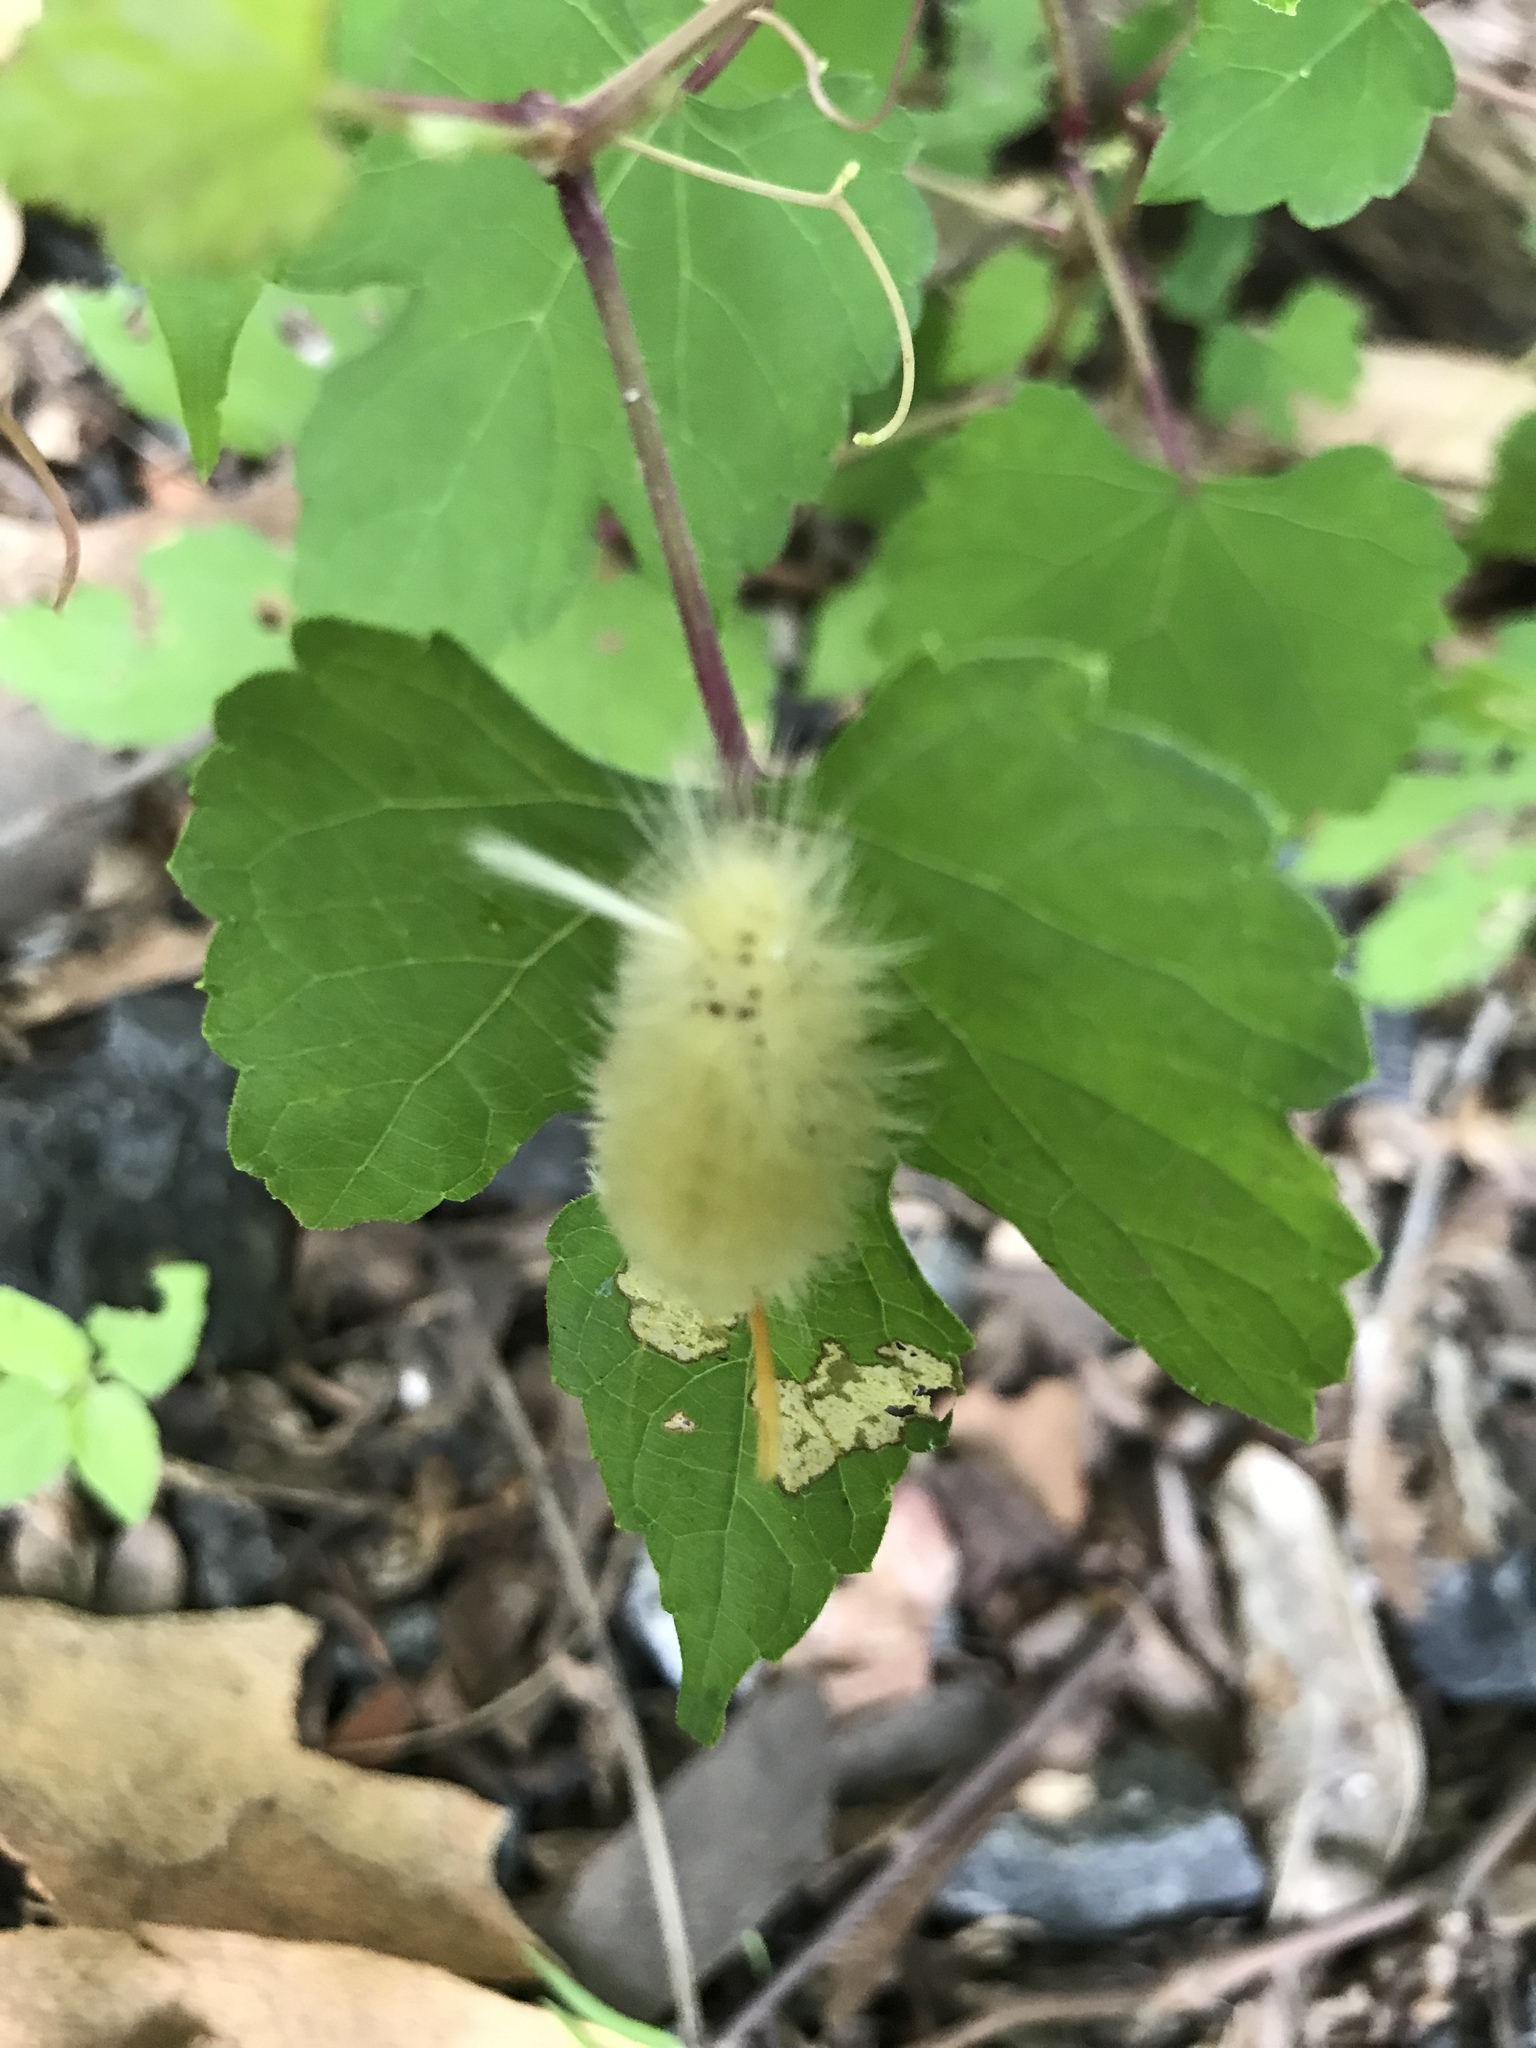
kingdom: Animalia
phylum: Arthropoda
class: Insecta
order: Lepidoptera
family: Erebidae
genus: Halysidota
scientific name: Halysidota harrisii
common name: Sycamore tussock moth
